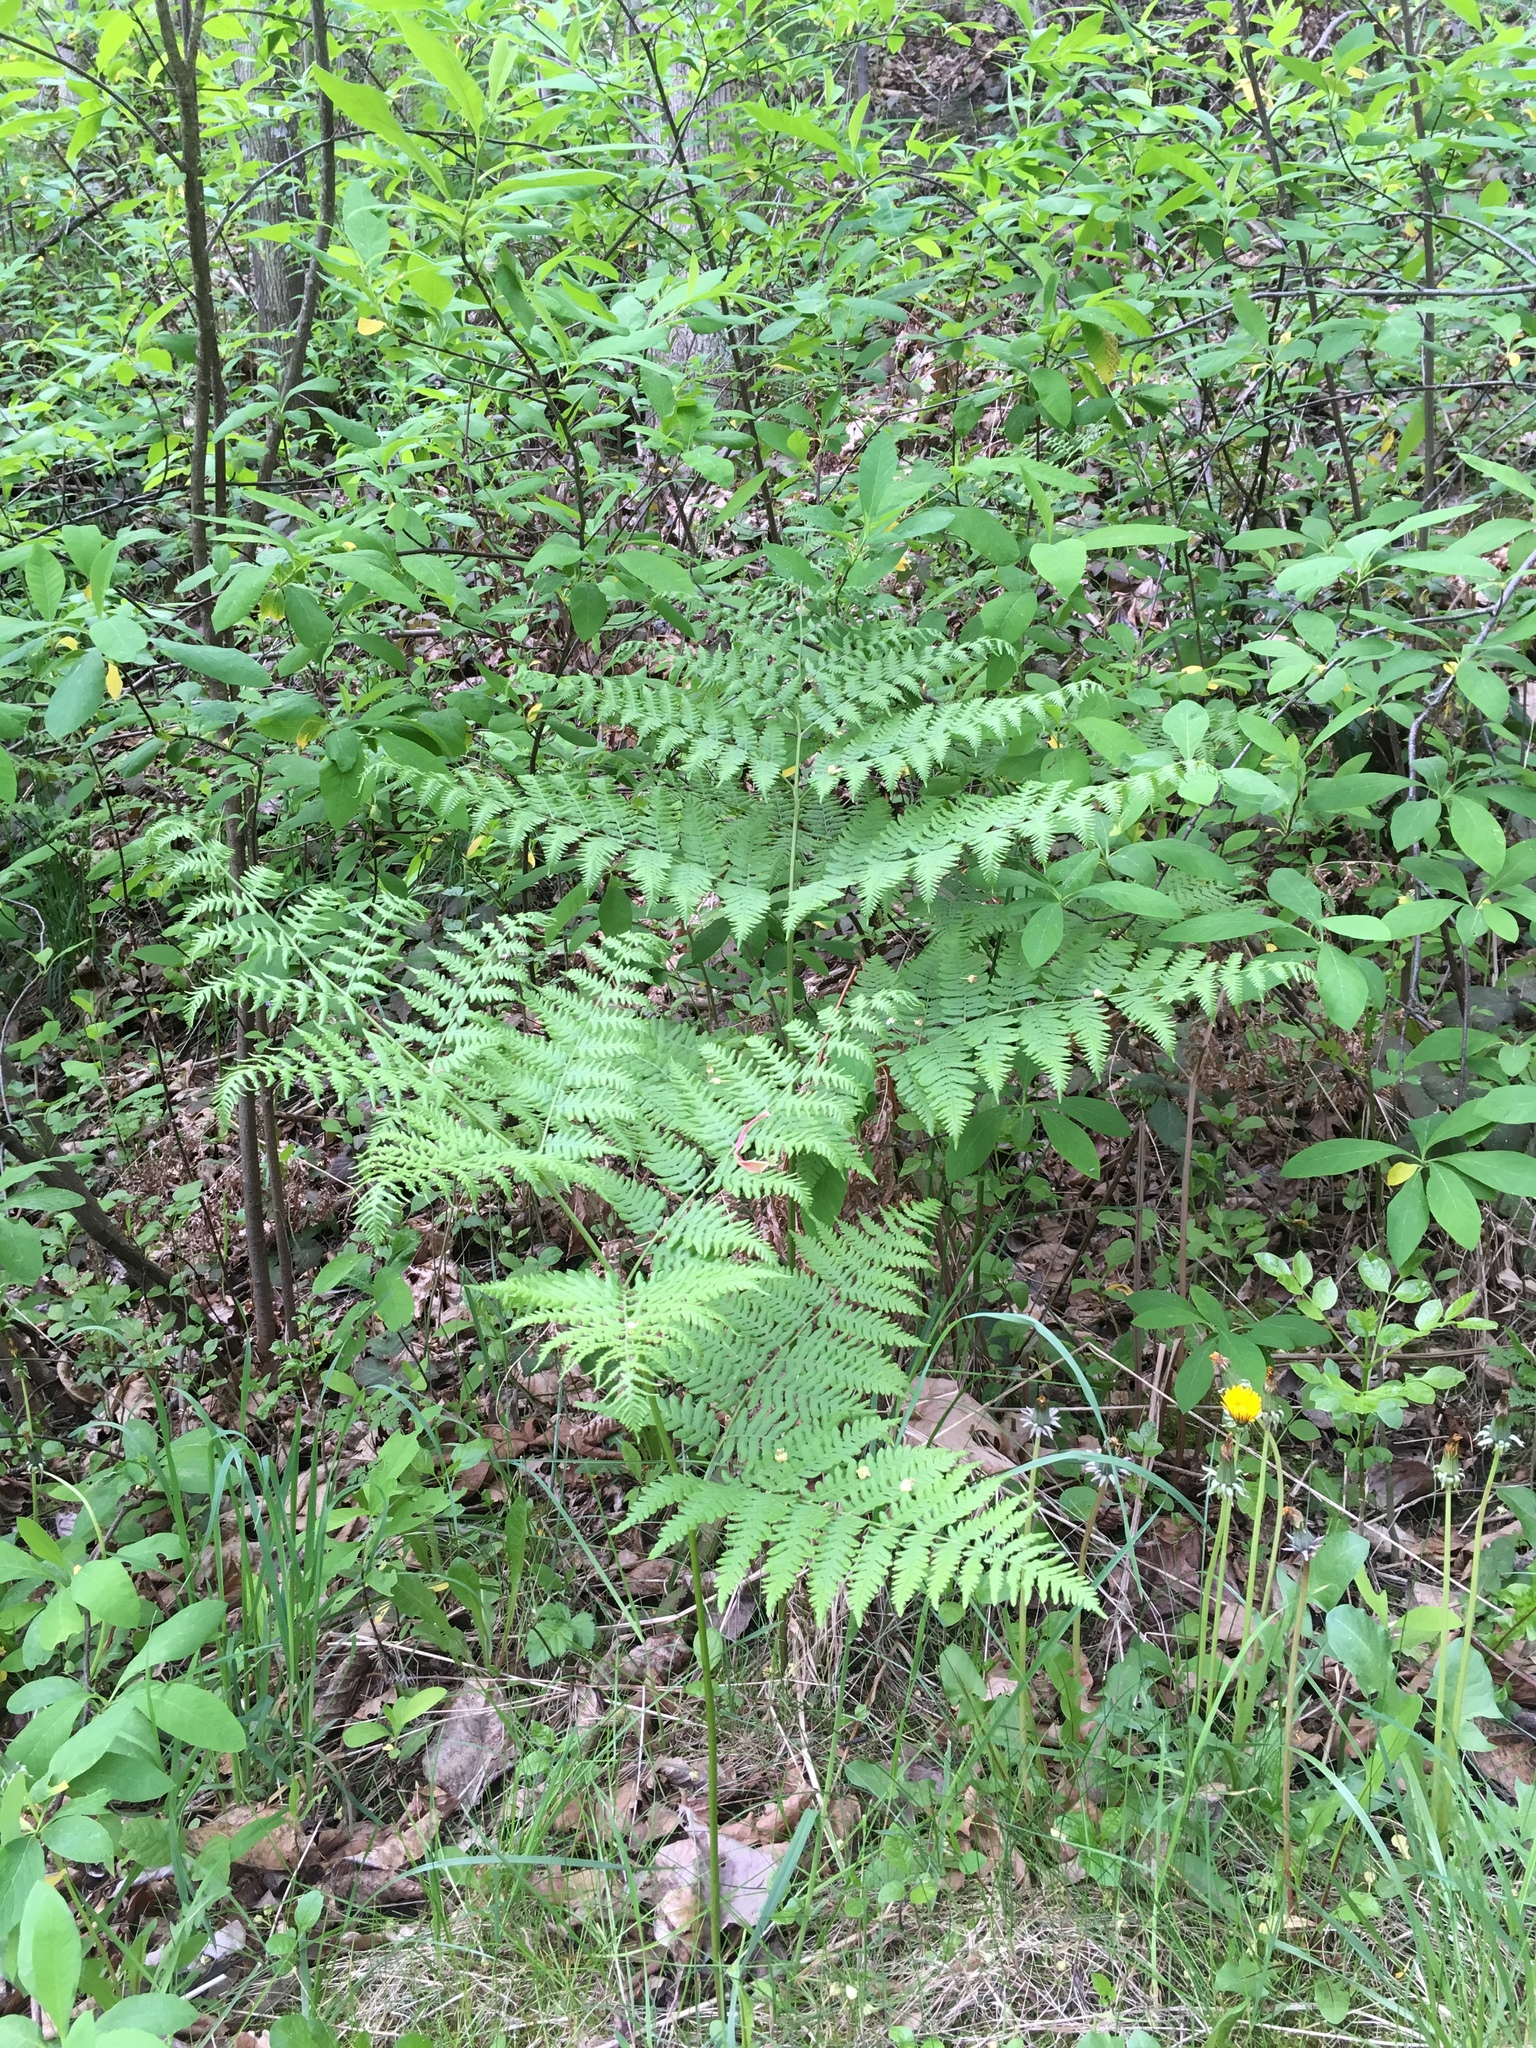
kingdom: Plantae
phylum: Tracheophyta
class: Polypodiopsida
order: Polypodiales
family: Dennstaedtiaceae
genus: Pteridium
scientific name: Pteridium aquilinum
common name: Bracken
